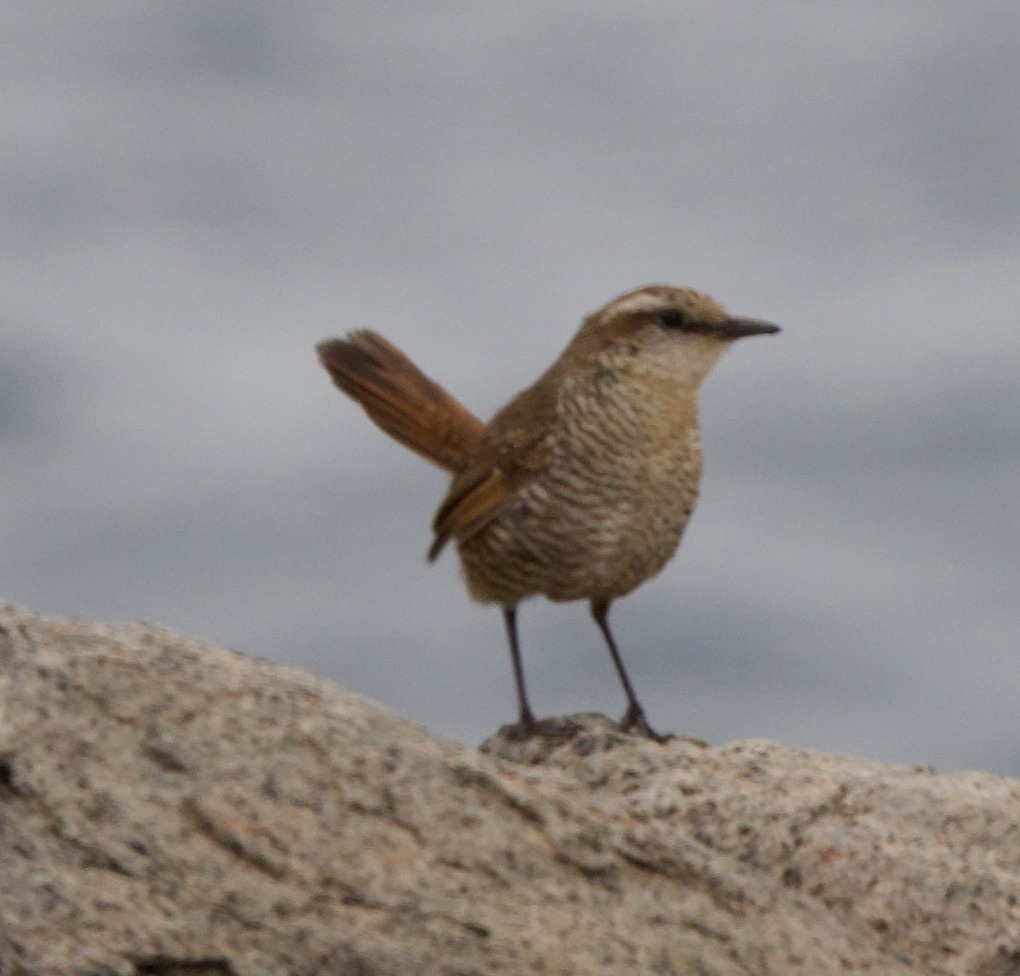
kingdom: Animalia
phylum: Chordata
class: Aves
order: Passeriformes
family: Rhinocryptidae
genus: Scelorchilus
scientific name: Scelorchilus albicollis
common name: White-throated tapaculo
